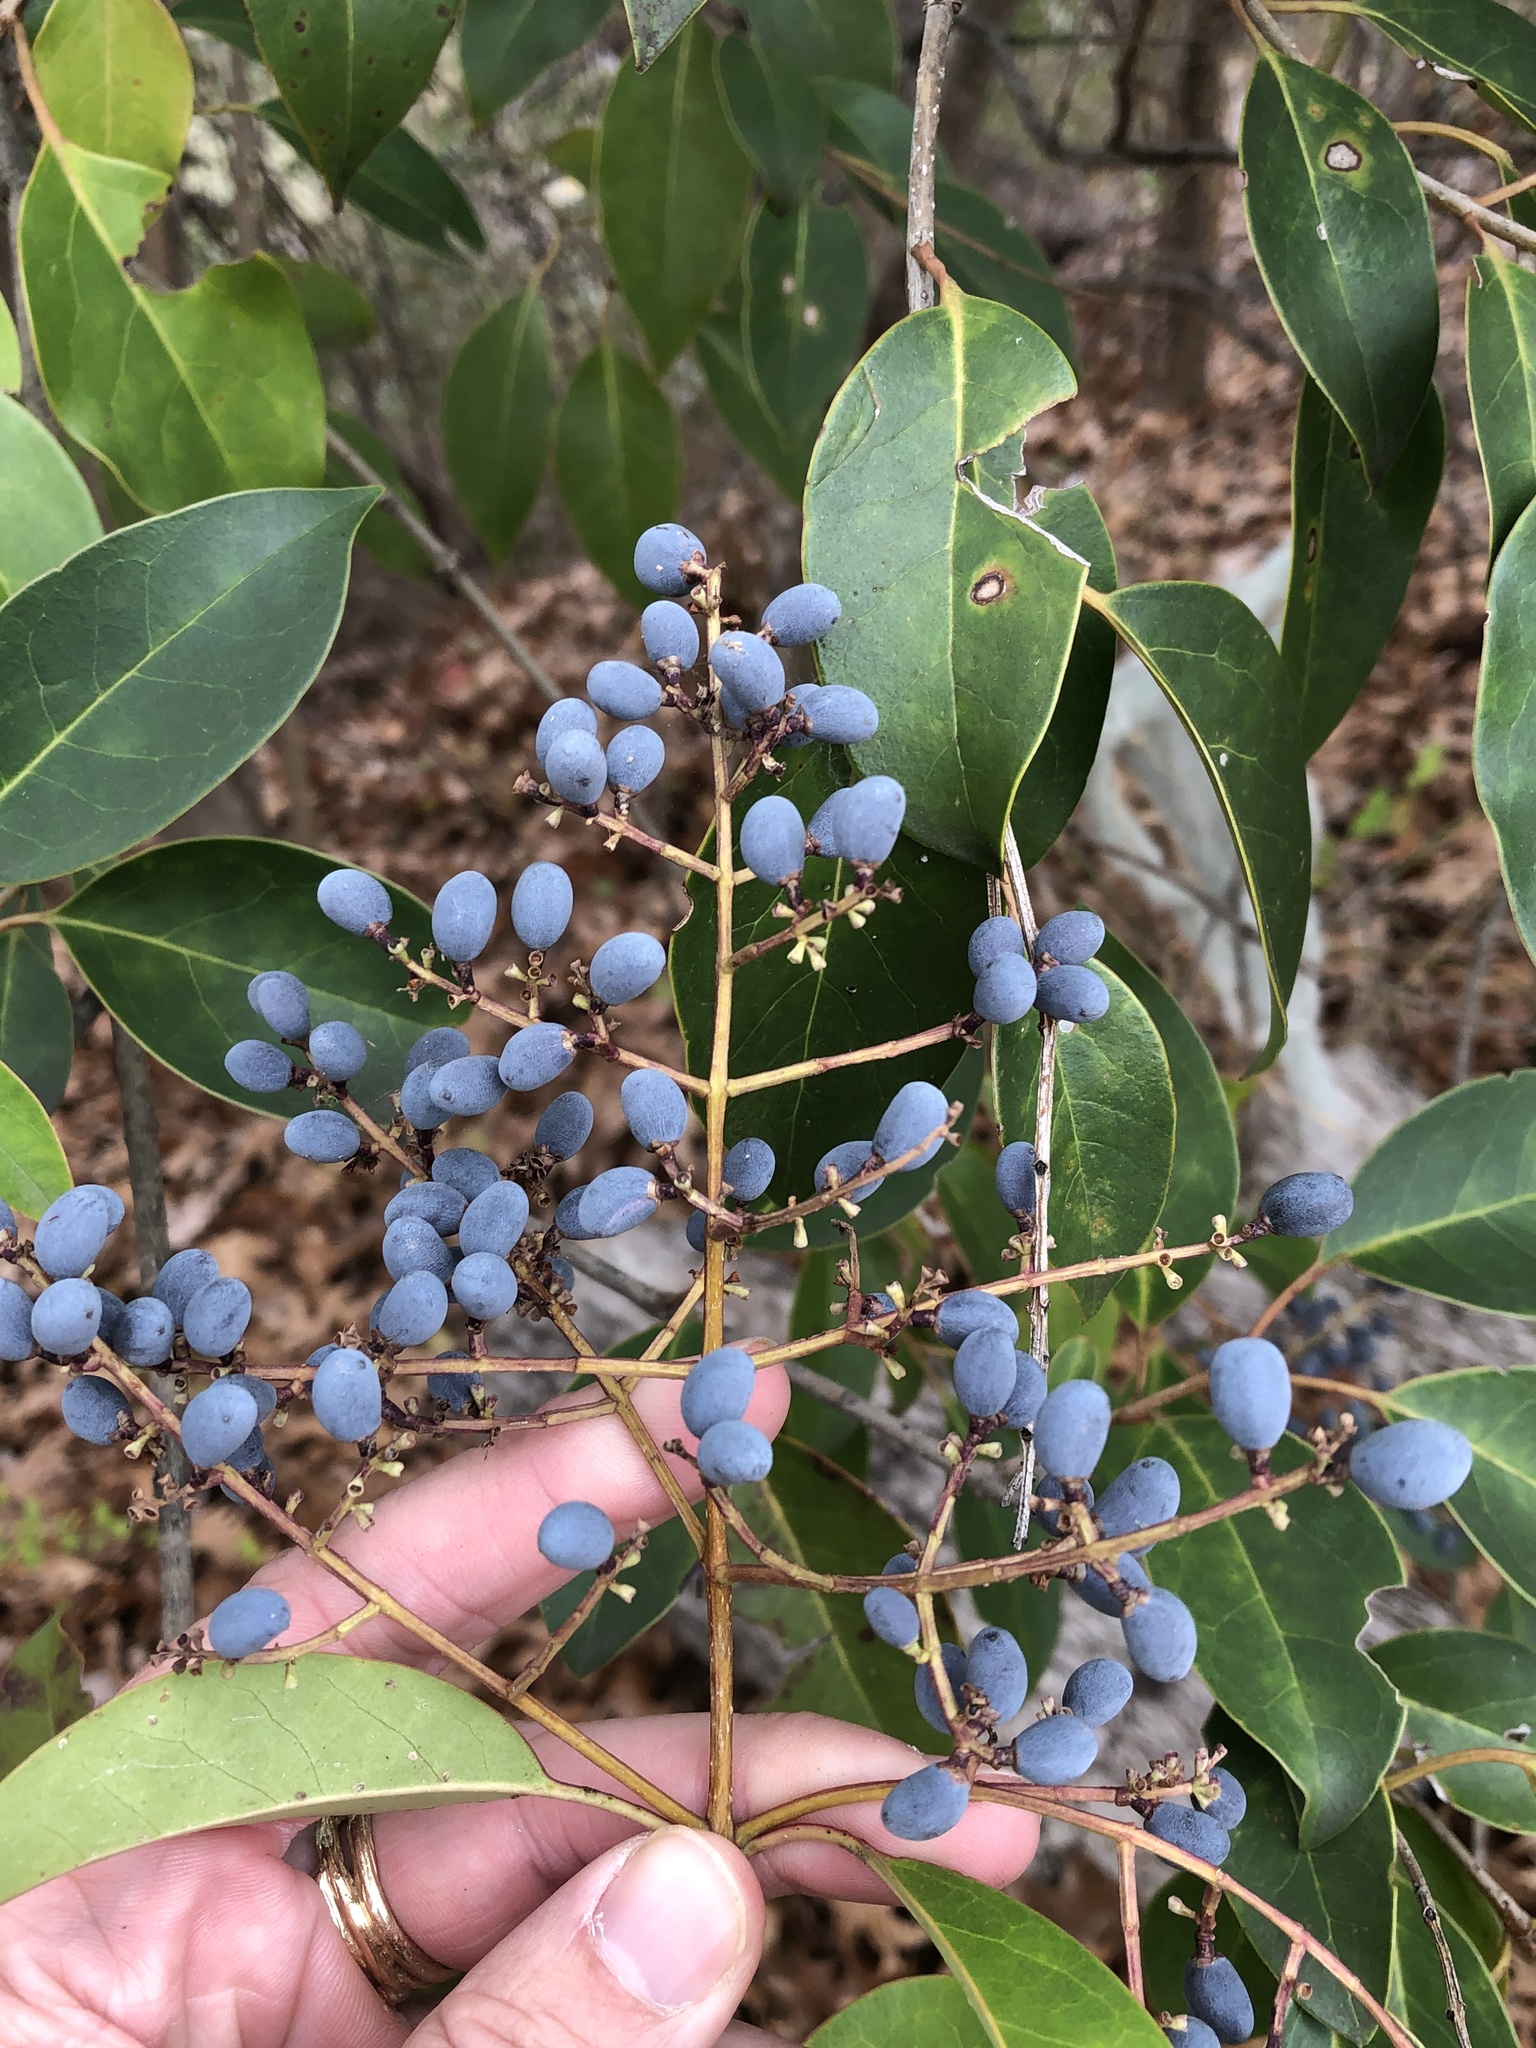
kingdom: Plantae
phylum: Tracheophyta
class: Magnoliopsida
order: Lamiales
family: Oleaceae
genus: Ligustrum
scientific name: Ligustrum lucidum
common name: Glossy privet
